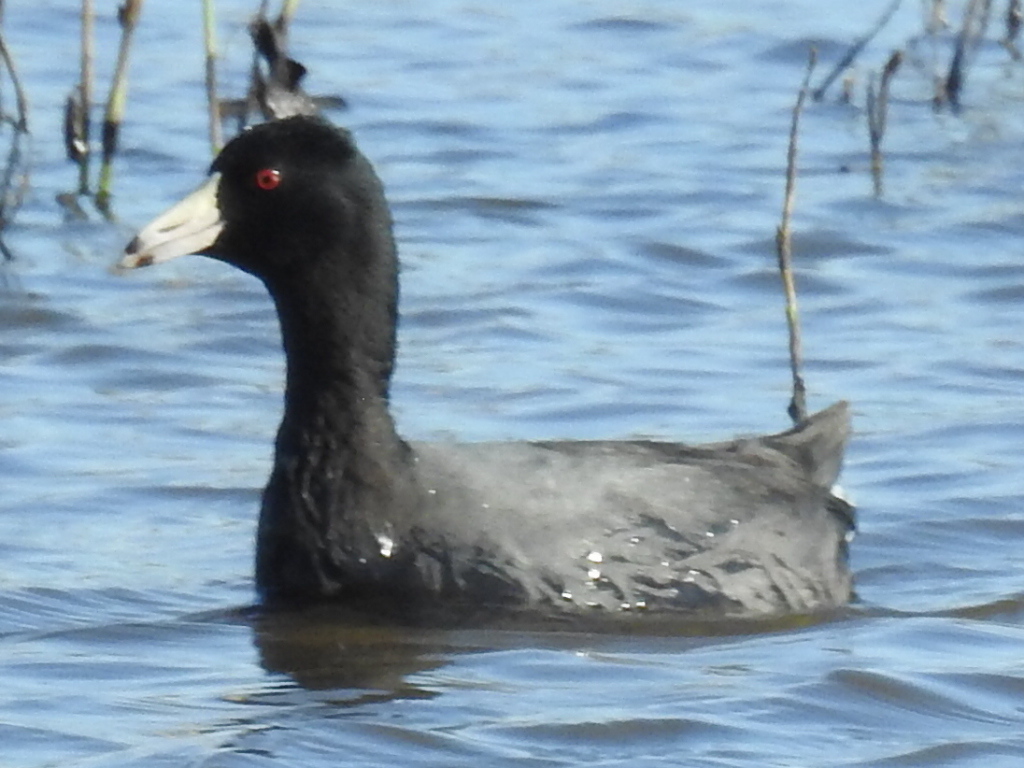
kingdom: Animalia
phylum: Chordata
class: Aves
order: Gruiformes
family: Rallidae
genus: Fulica
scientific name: Fulica americana
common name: American coot
